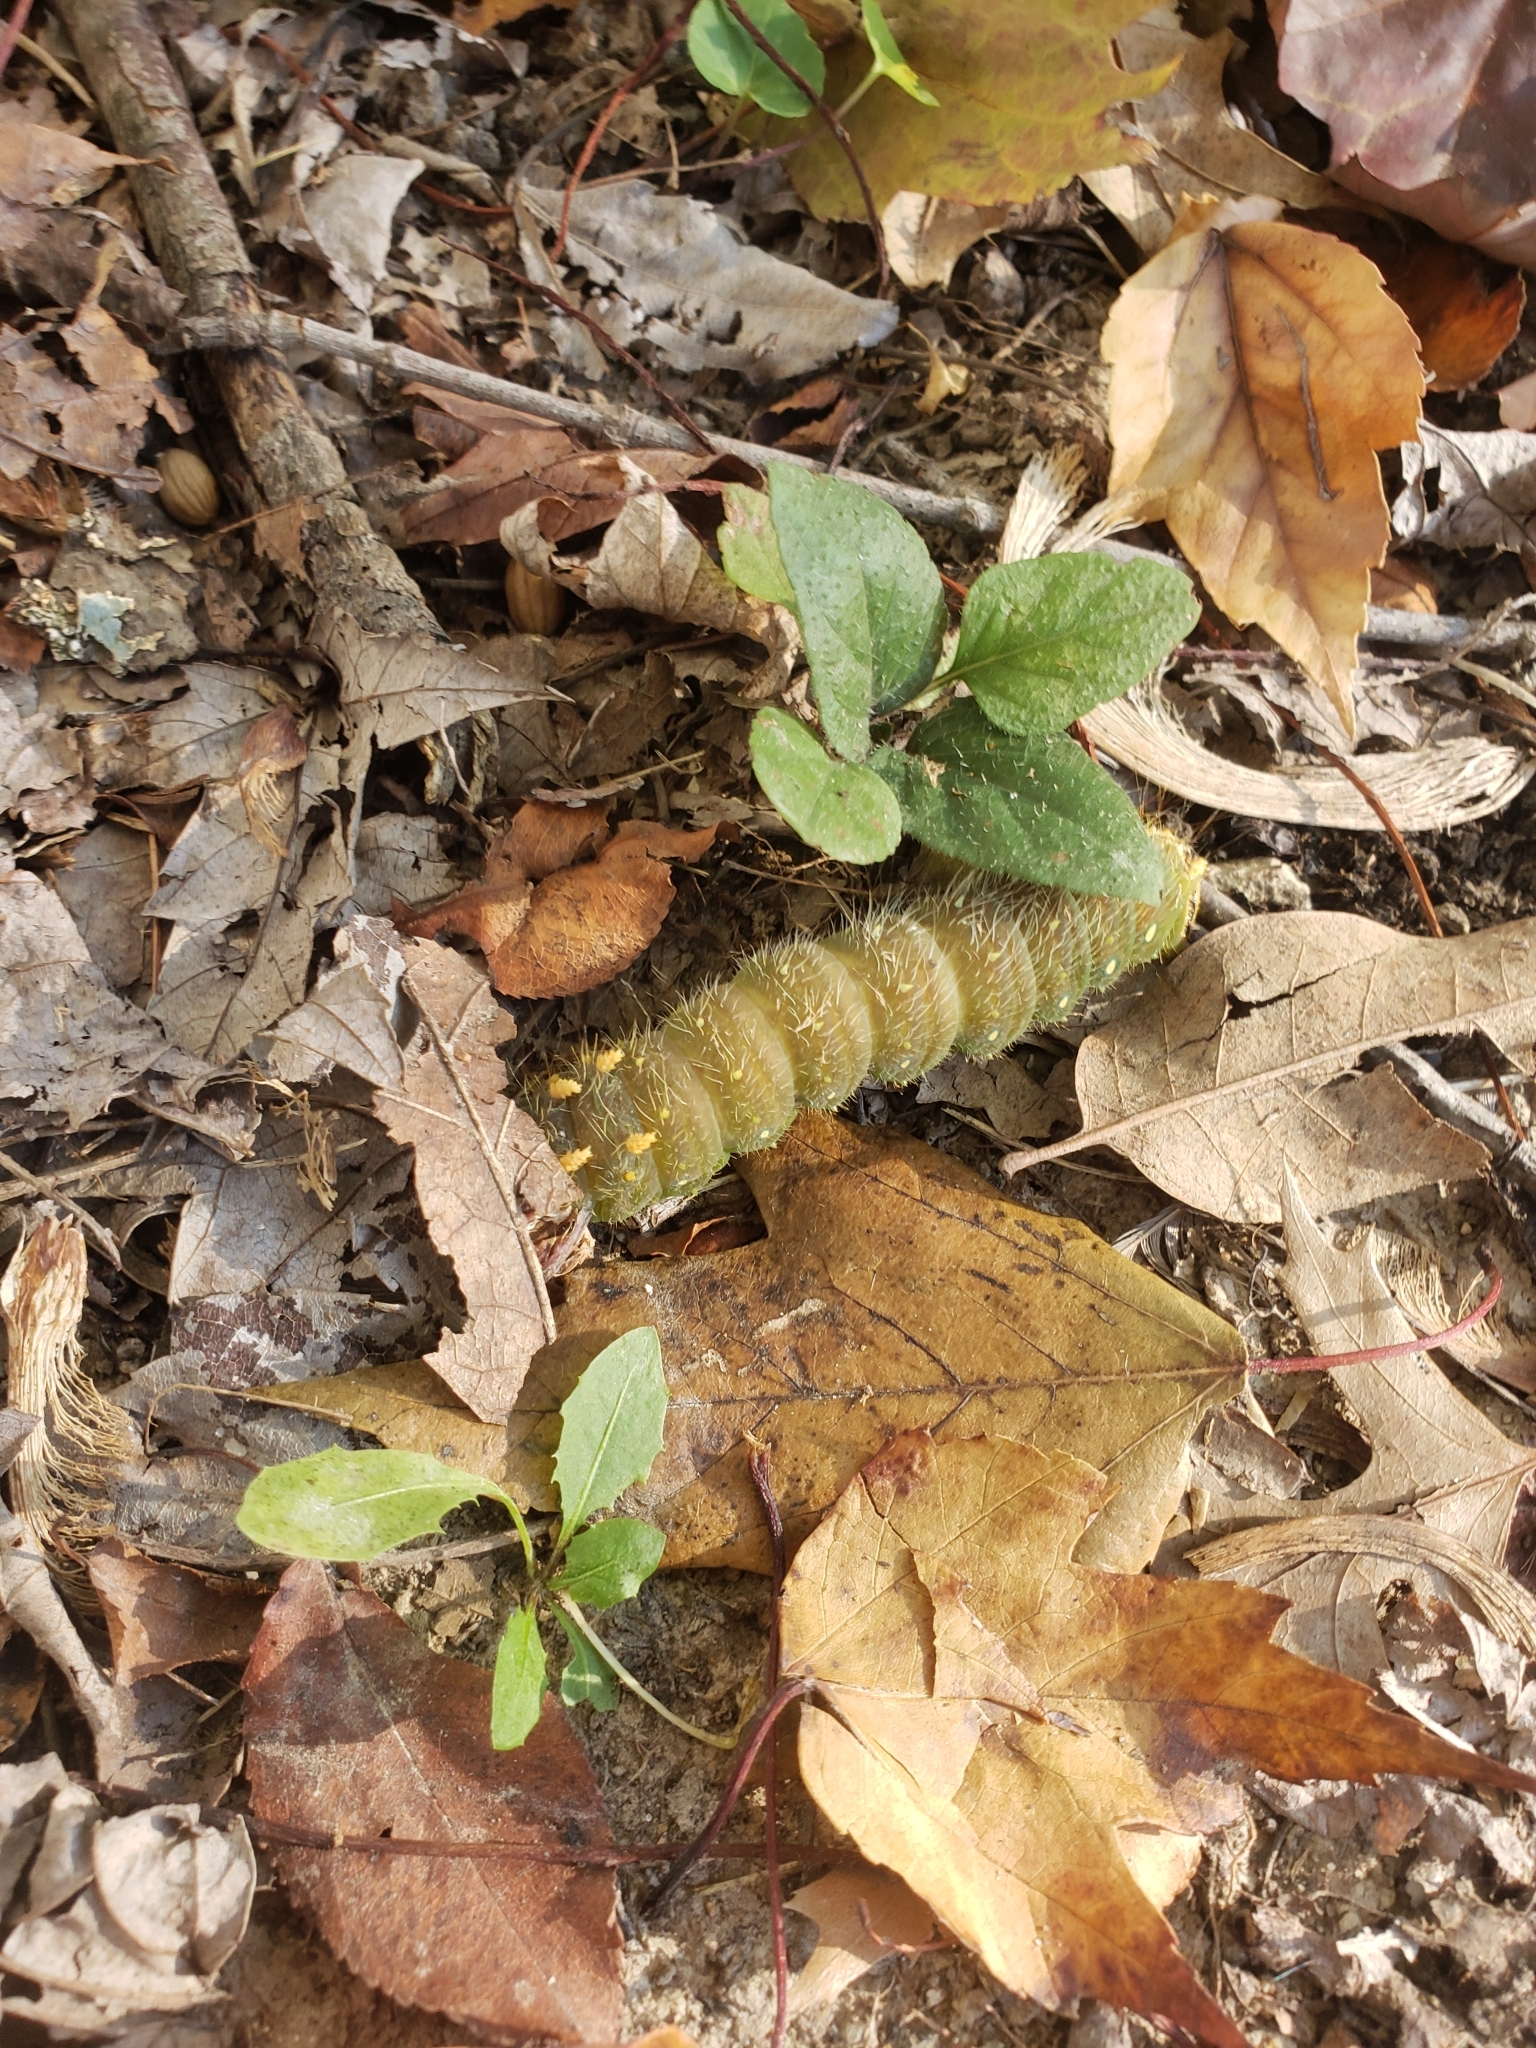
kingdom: Animalia
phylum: Arthropoda
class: Insecta
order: Lepidoptera
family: Saturniidae
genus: Eacles
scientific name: Eacles imperialis
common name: Imperial moth
